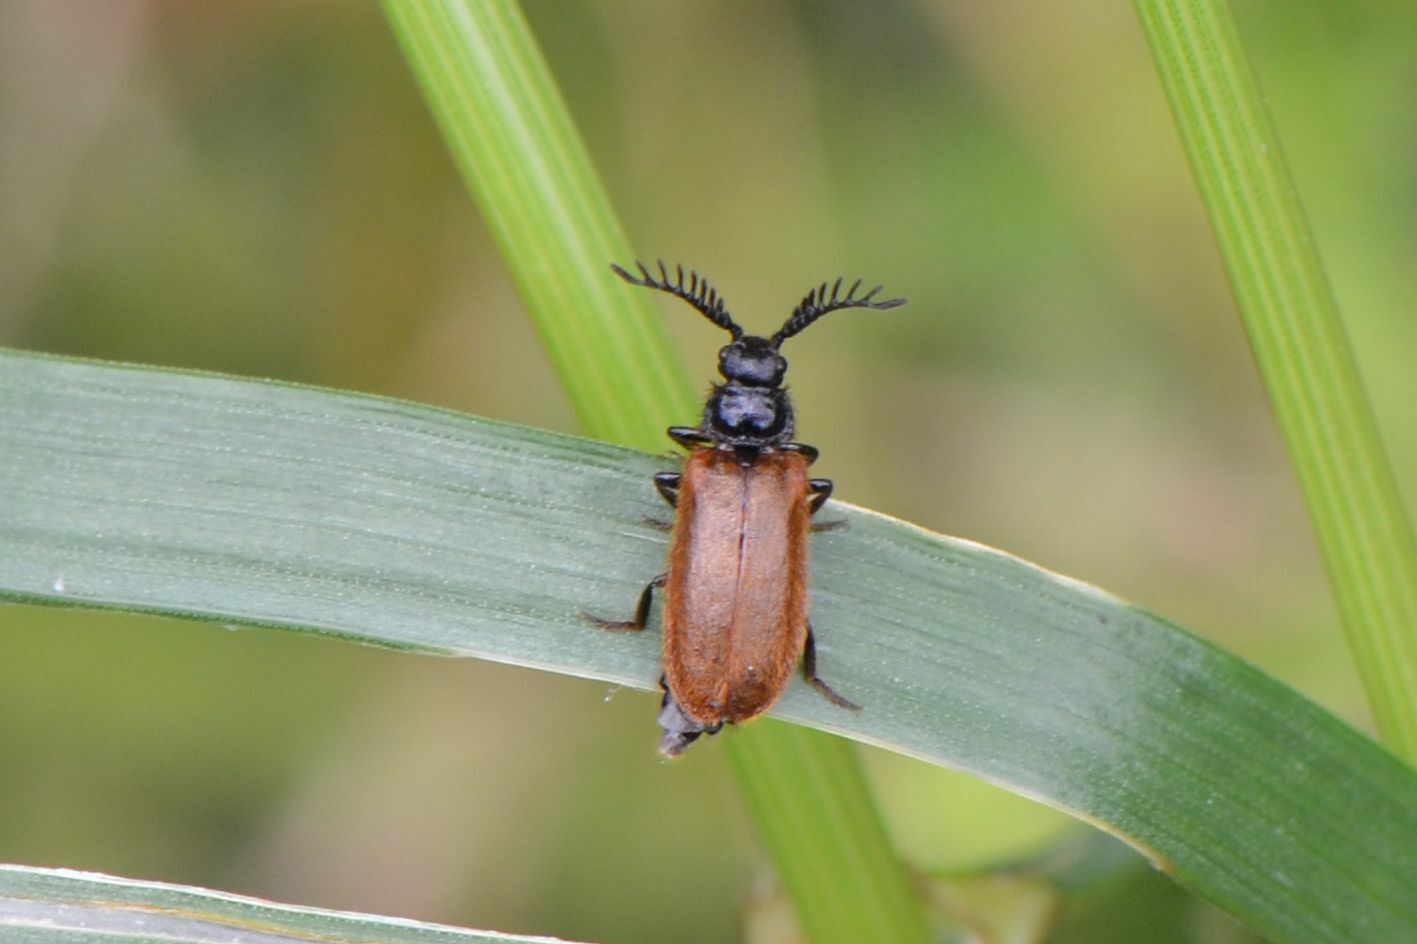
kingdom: Animalia
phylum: Arthropoda
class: Insecta
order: Coleoptera
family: Drilidae
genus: Drilus
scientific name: Drilus flavescens
